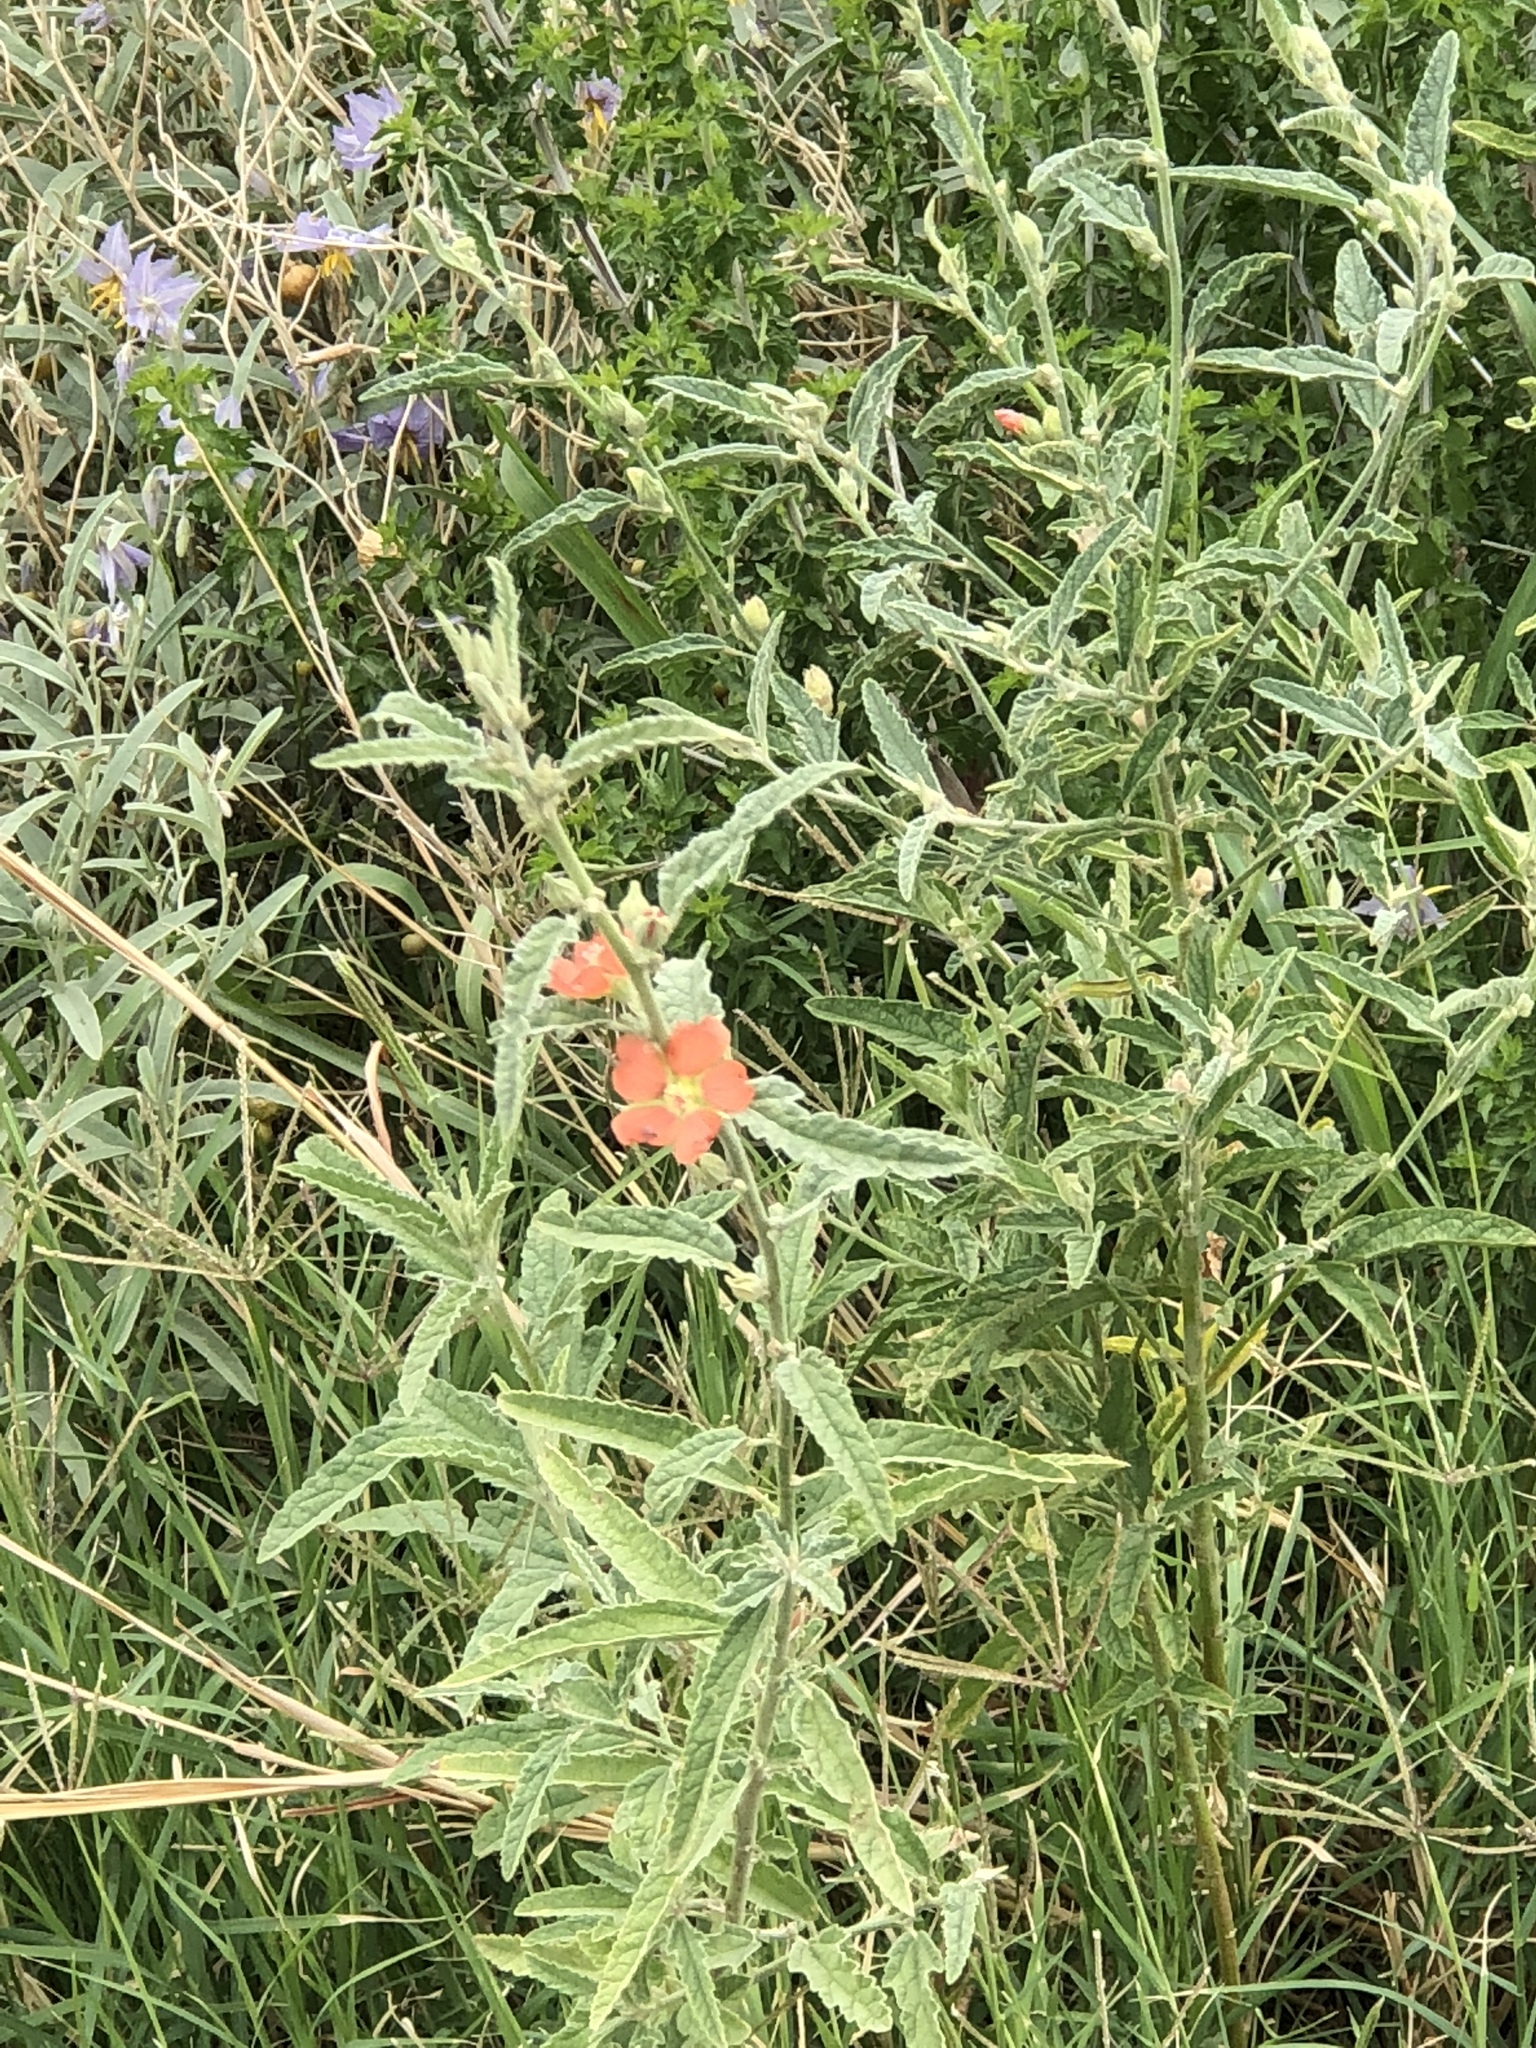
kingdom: Plantae
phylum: Tracheophyta
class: Magnoliopsida
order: Malvales
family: Malvaceae
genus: Sphaeralcea
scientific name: Sphaeralcea angustifolia
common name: Copper globe-mallow
